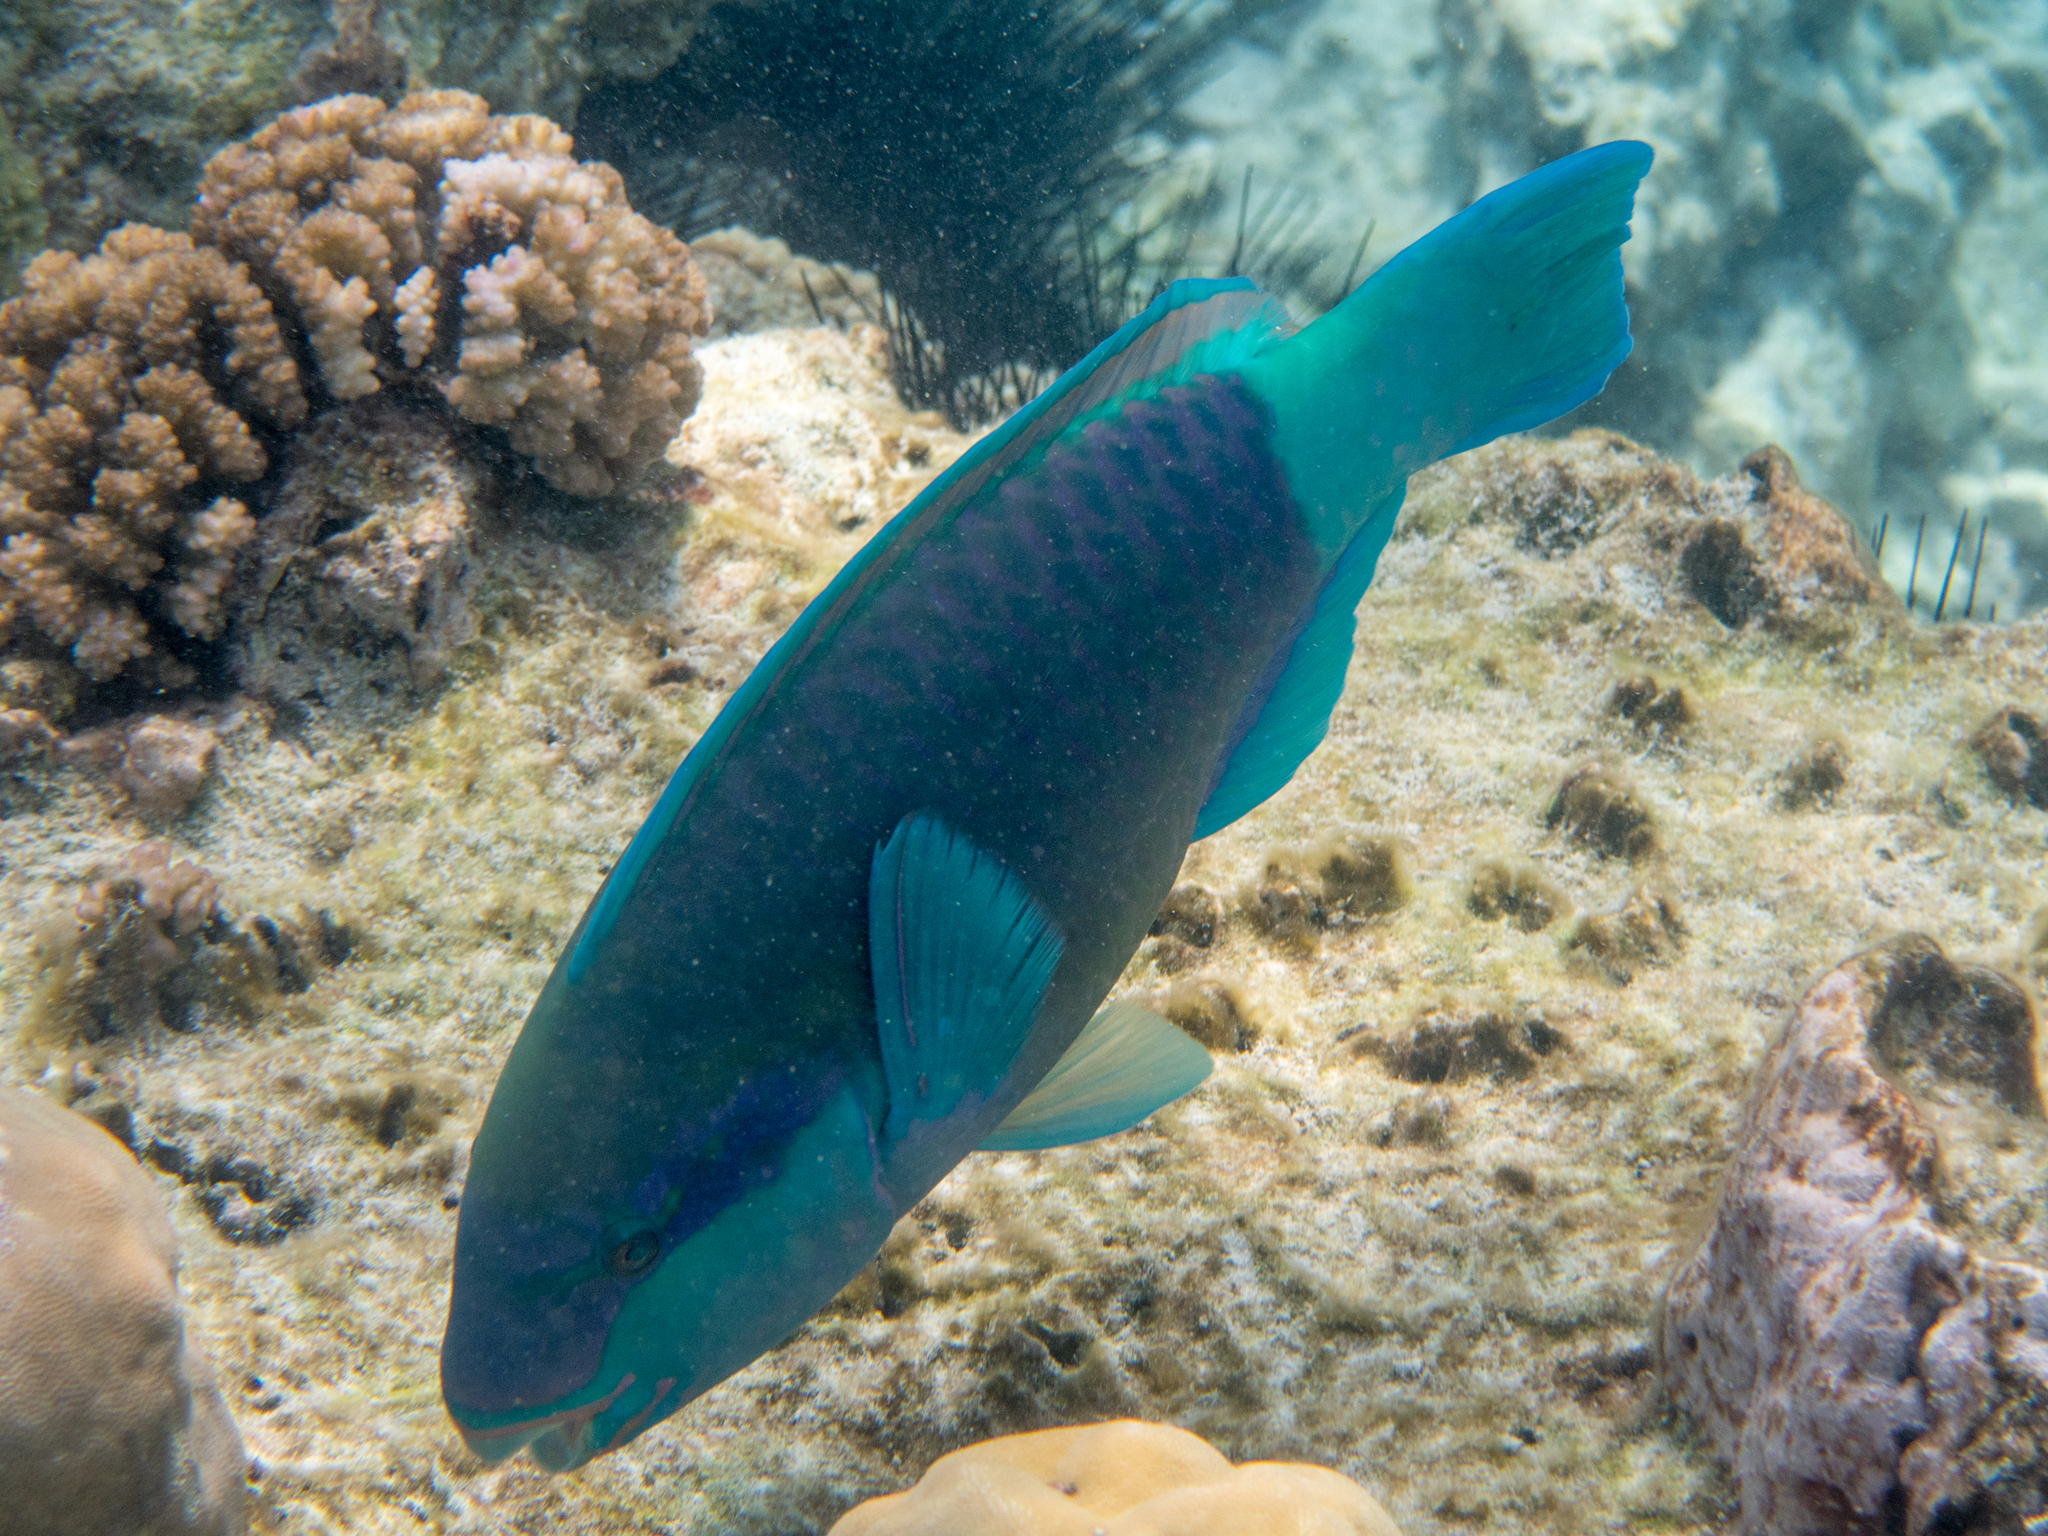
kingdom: Animalia
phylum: Chordata
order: Perciformes
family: Scaridae
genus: Scarus
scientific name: Scarus frenatus
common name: Bridled parrotfish
